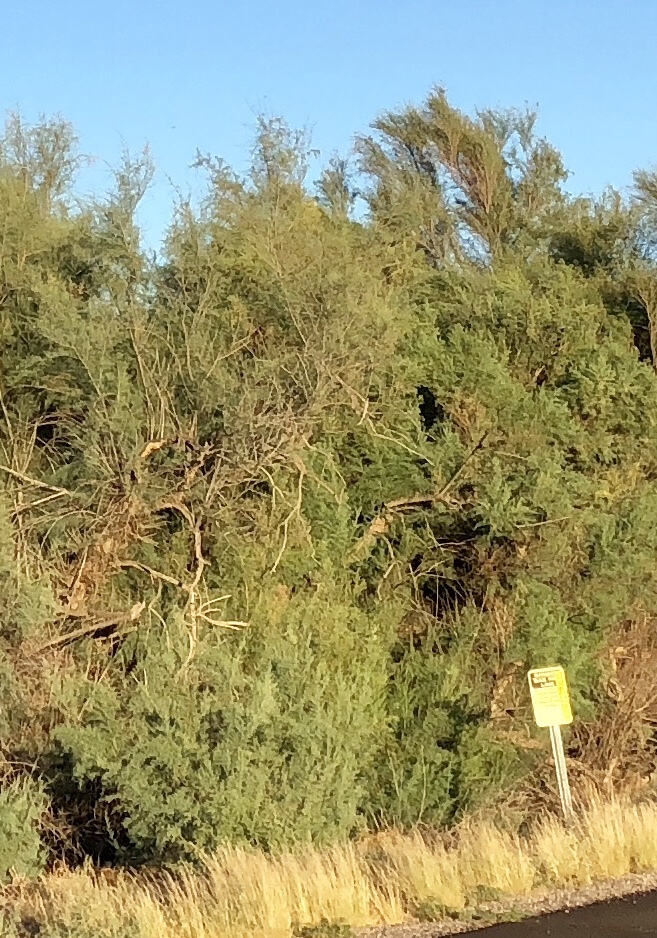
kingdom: Plantae
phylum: Tracheophyta
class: Magnoliopsida
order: Caryophyllales
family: Tamaricaceae
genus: Tamarix
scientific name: Tamarix ramosissima
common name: Pink tamarisk
